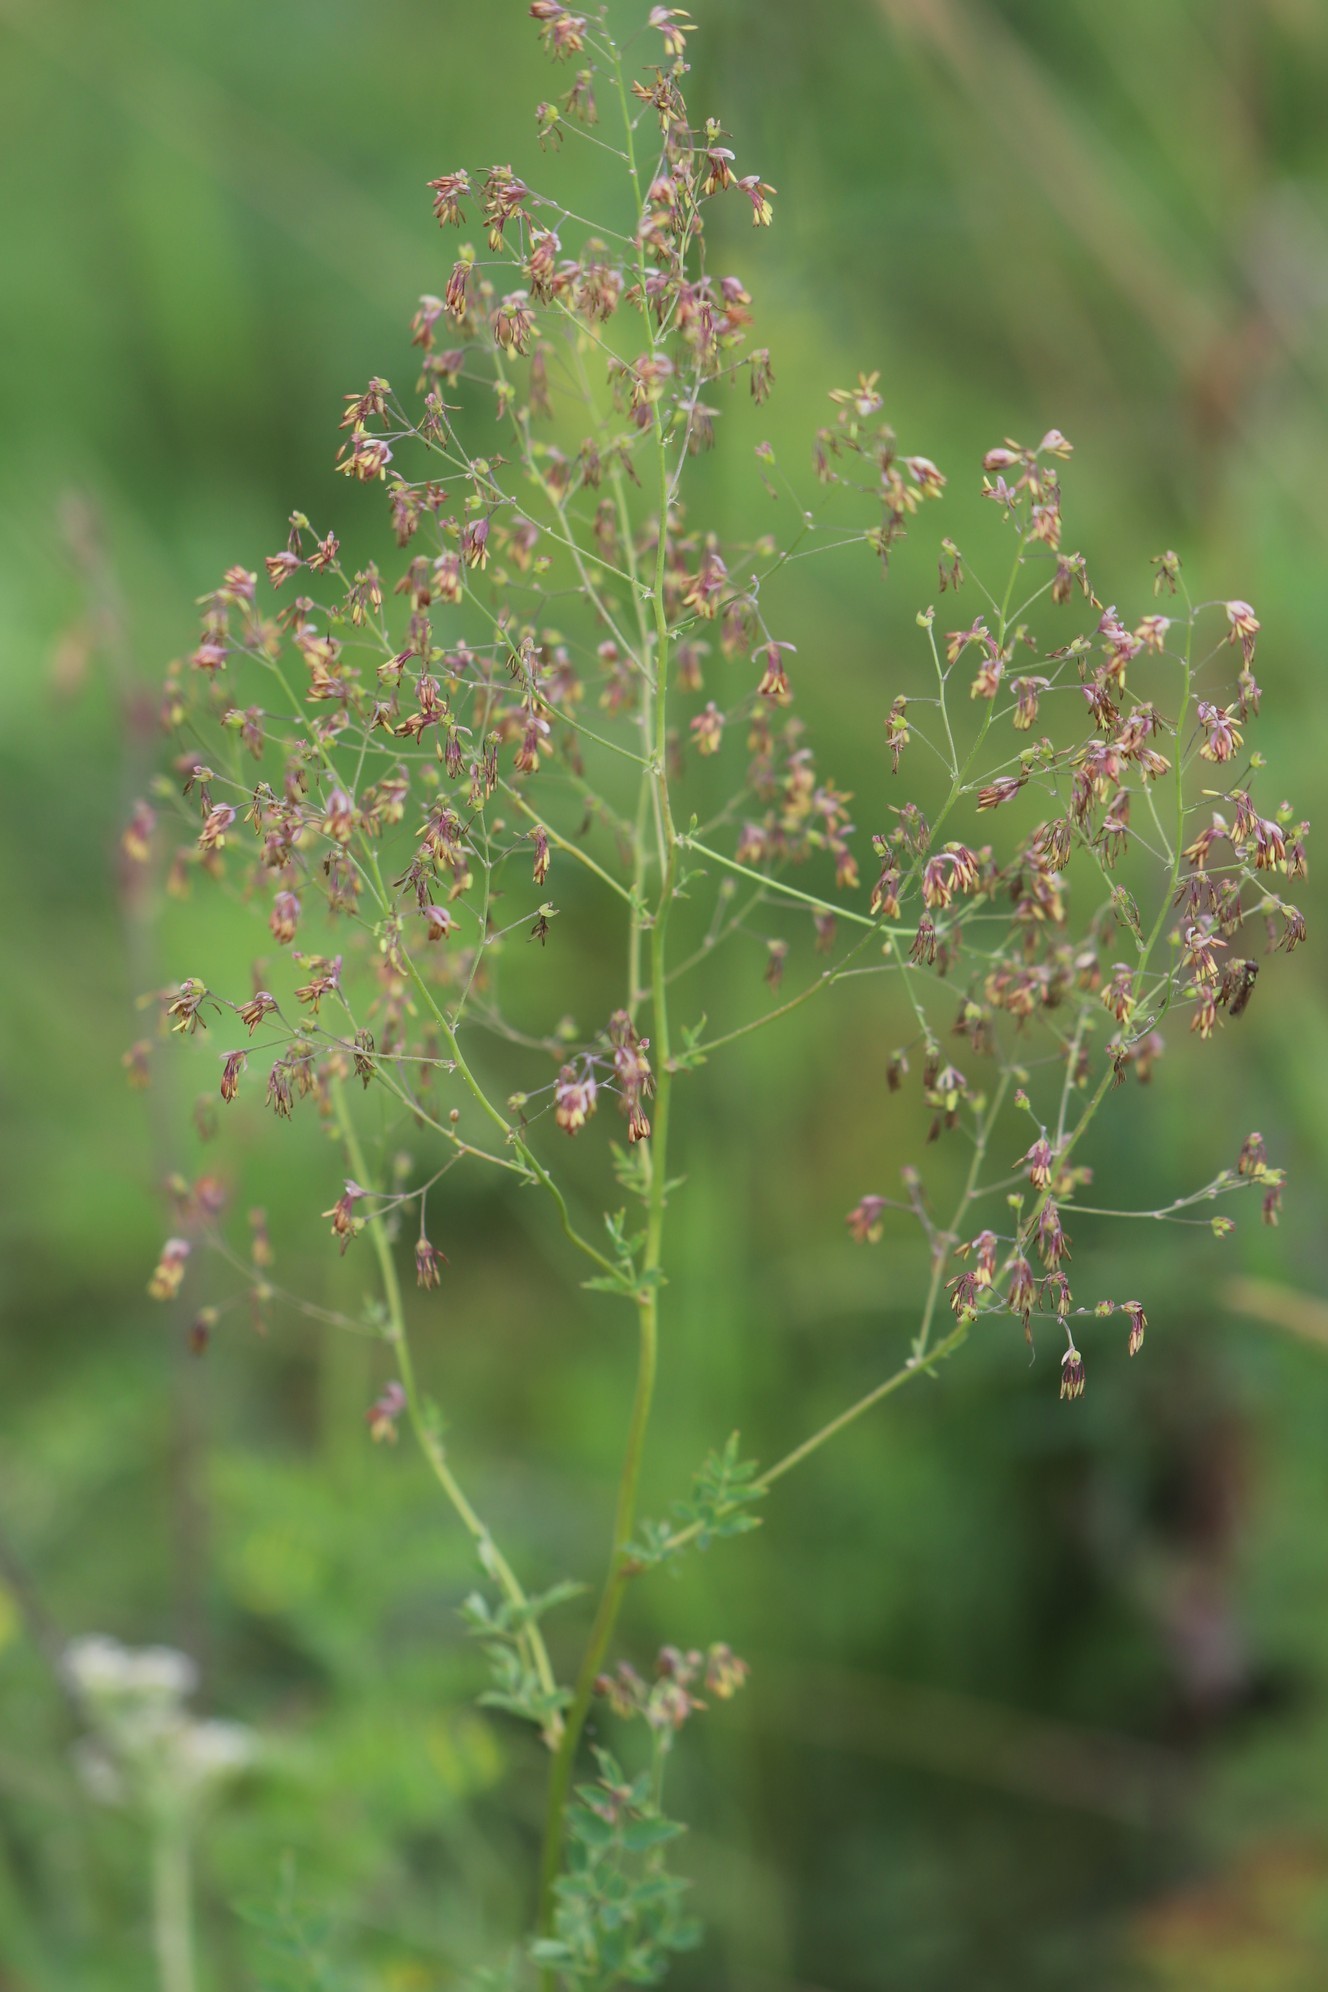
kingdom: Plantae
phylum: Tracheophyta
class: Magnoliopsida
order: Ranunculales
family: Ranunculaceae
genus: Thalictrum
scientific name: Thalictrum minus
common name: Lesser meadow-rue
